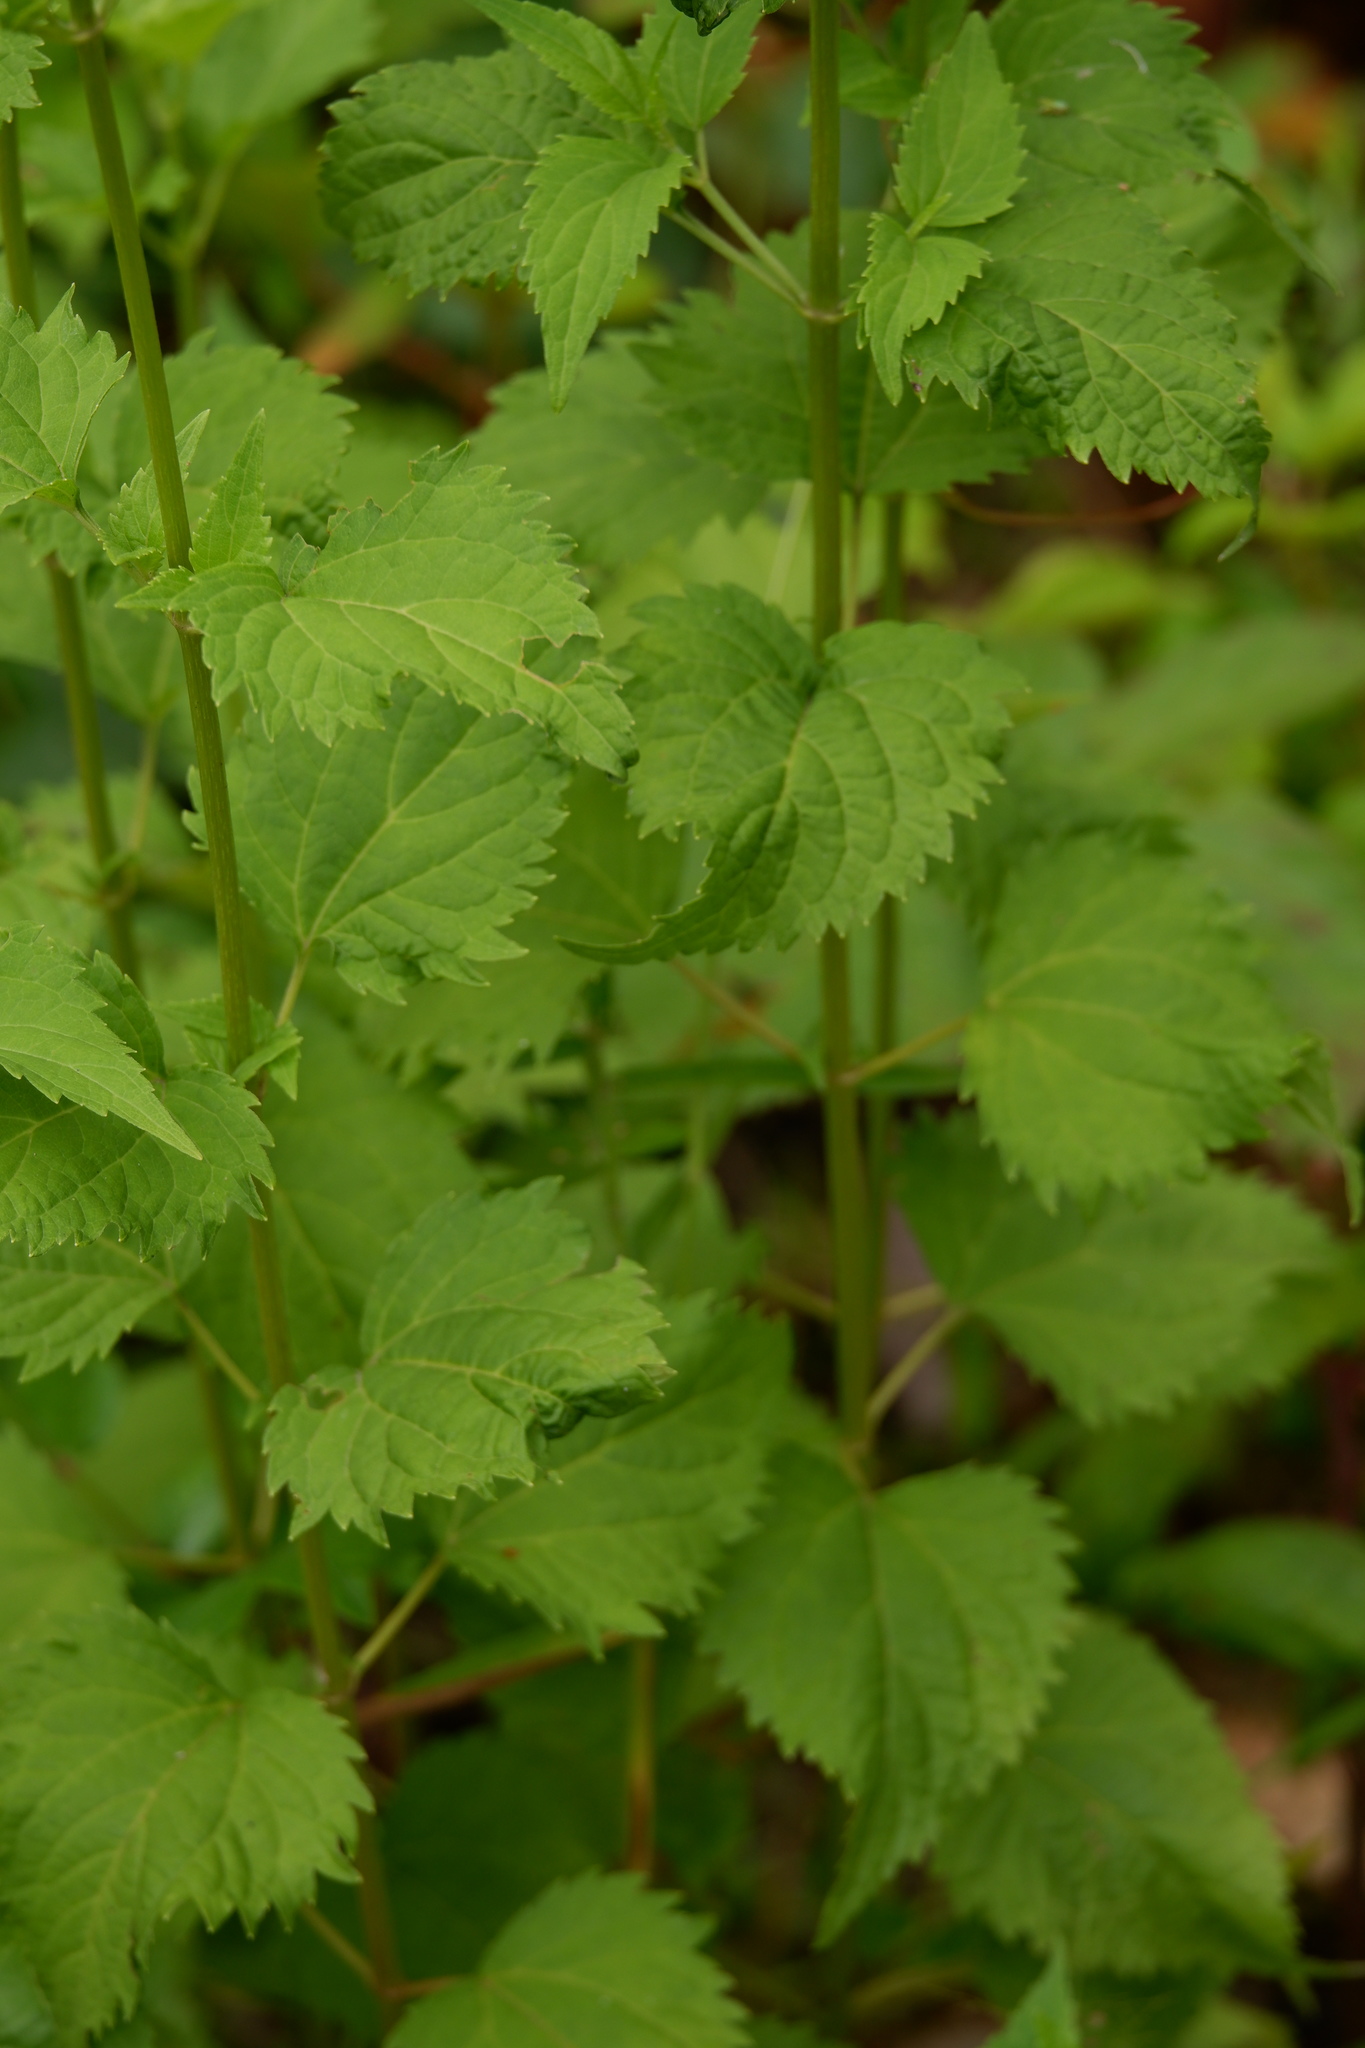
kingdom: Plantae
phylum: Tracheophyta
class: Magnoliopsida
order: Asterales
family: Asteraceae
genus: Ageratina
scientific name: Ageratina altissima
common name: White snakeroot
